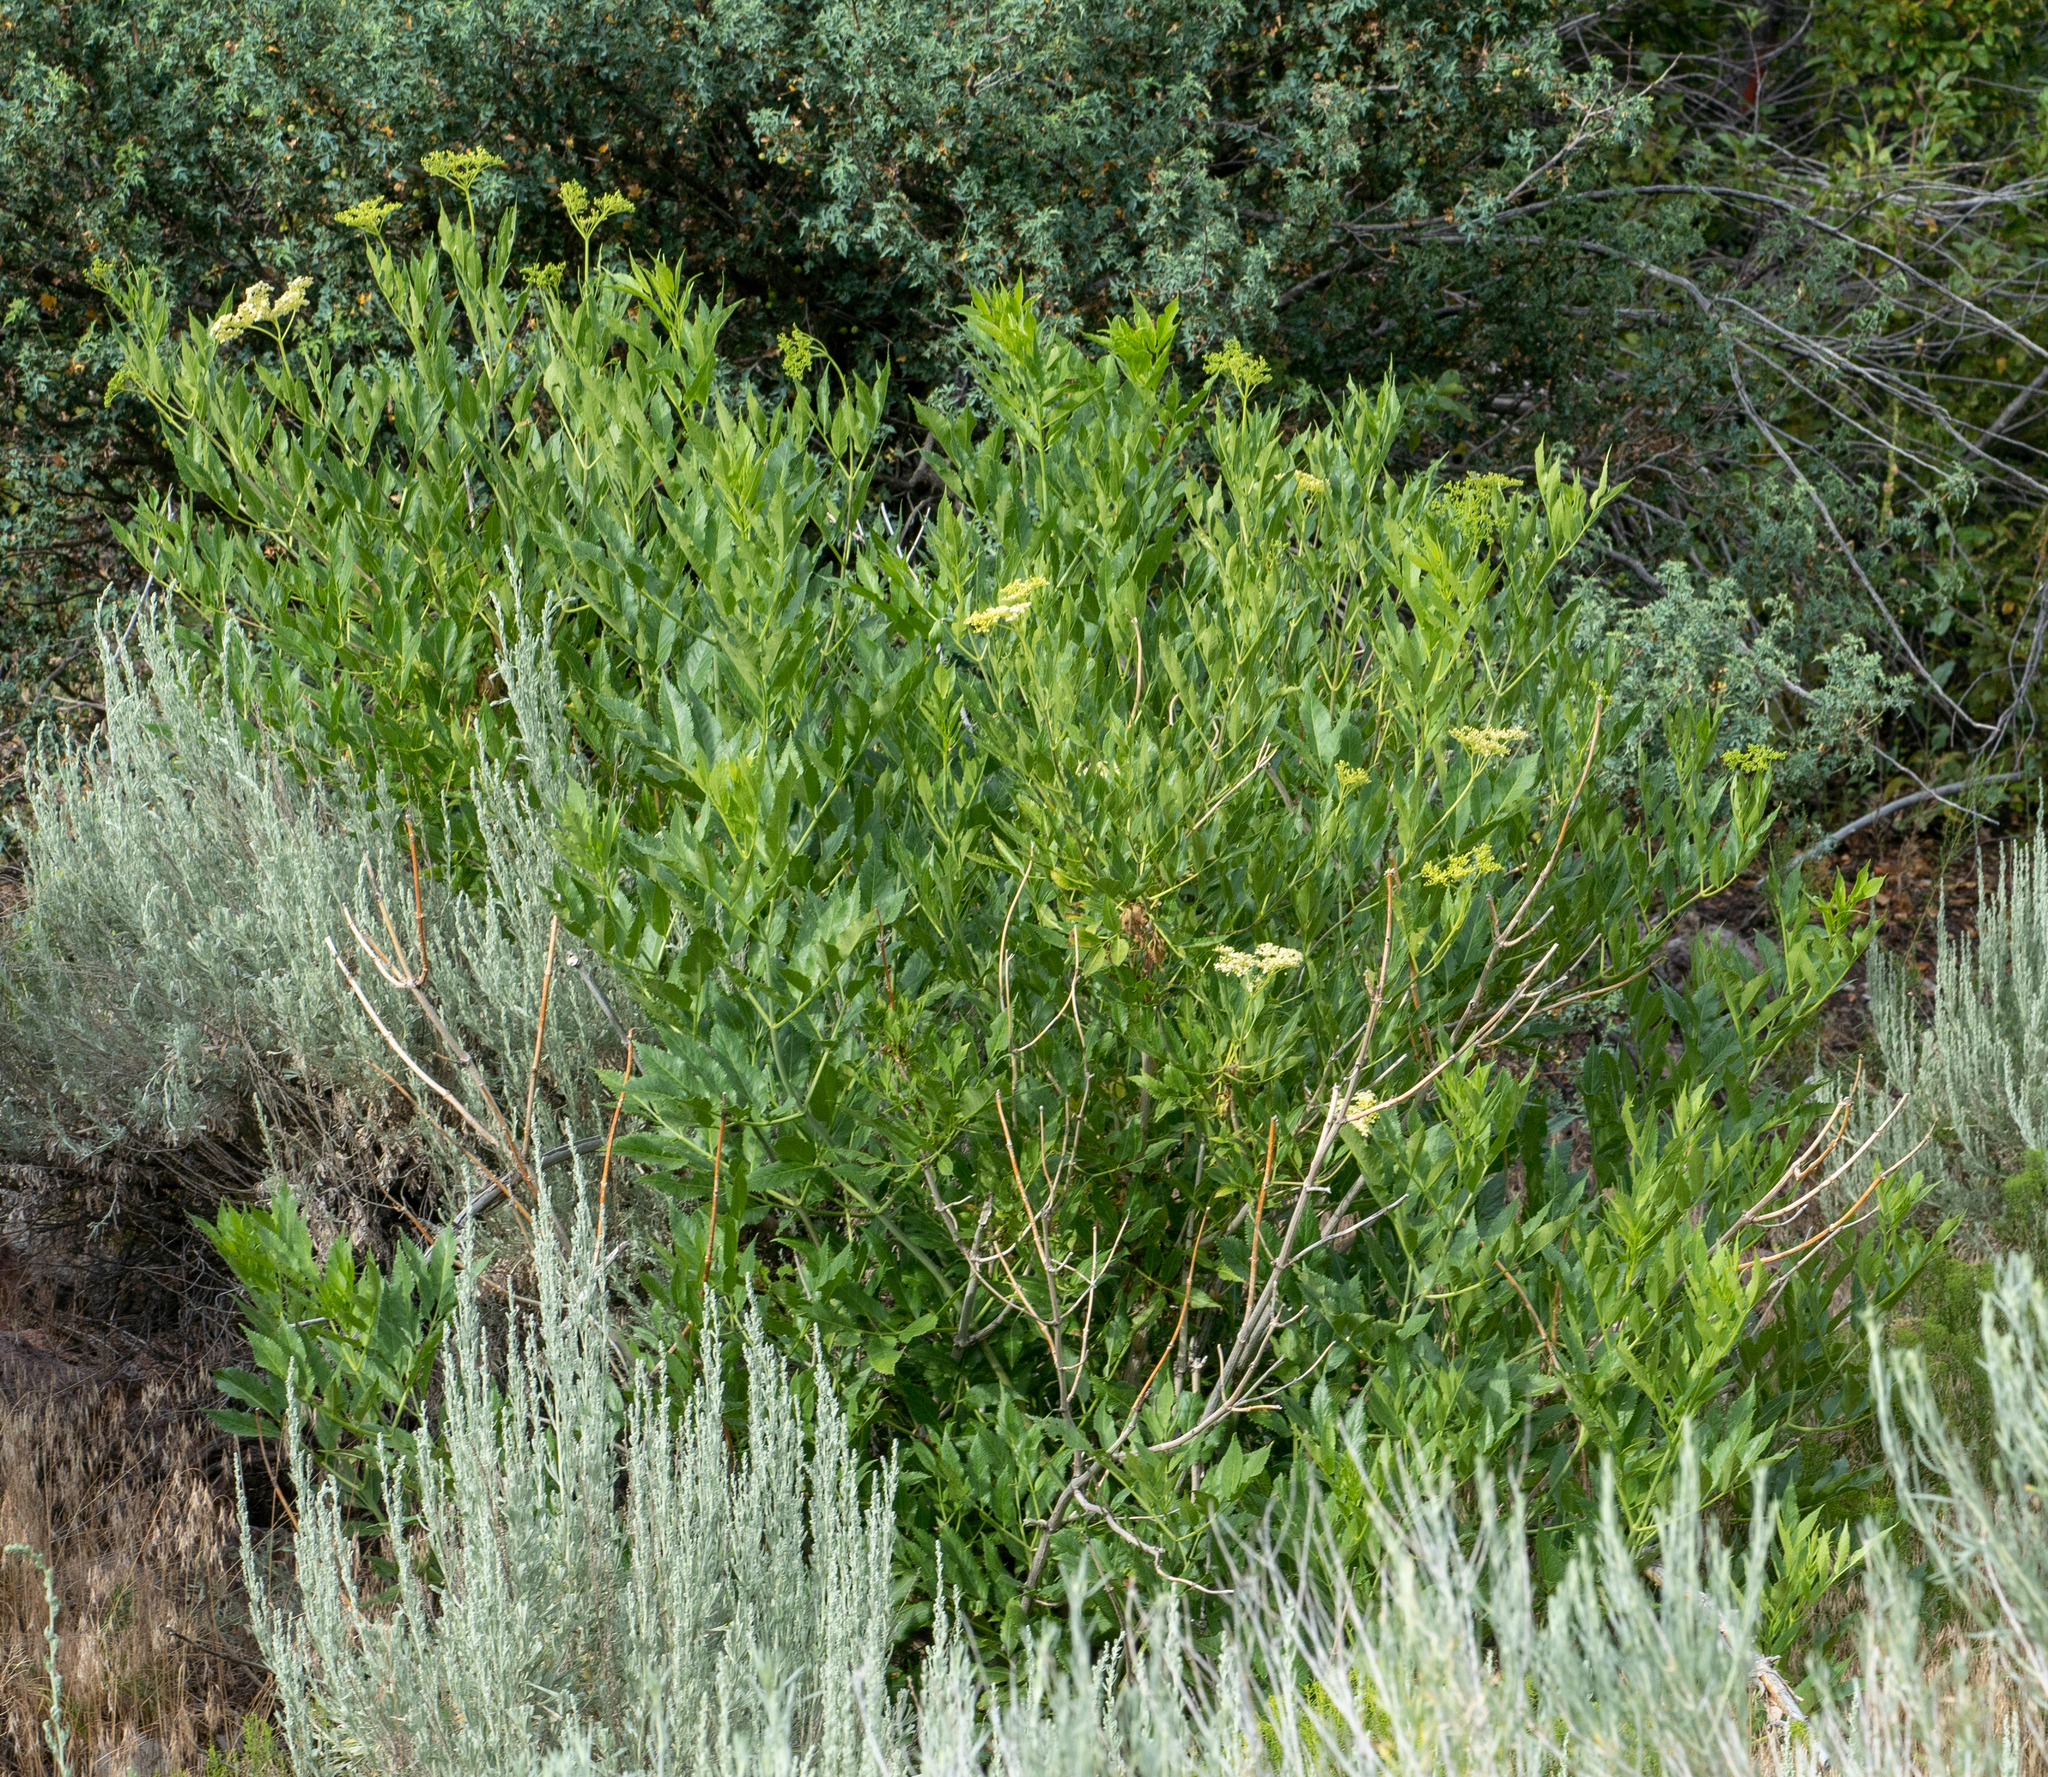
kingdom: Plantae
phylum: Tracheophyta
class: Magnoliopsida
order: Dipsacales
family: Viburnaceae
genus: Sambucus
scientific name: Sambucus cerulea
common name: Blue elder
